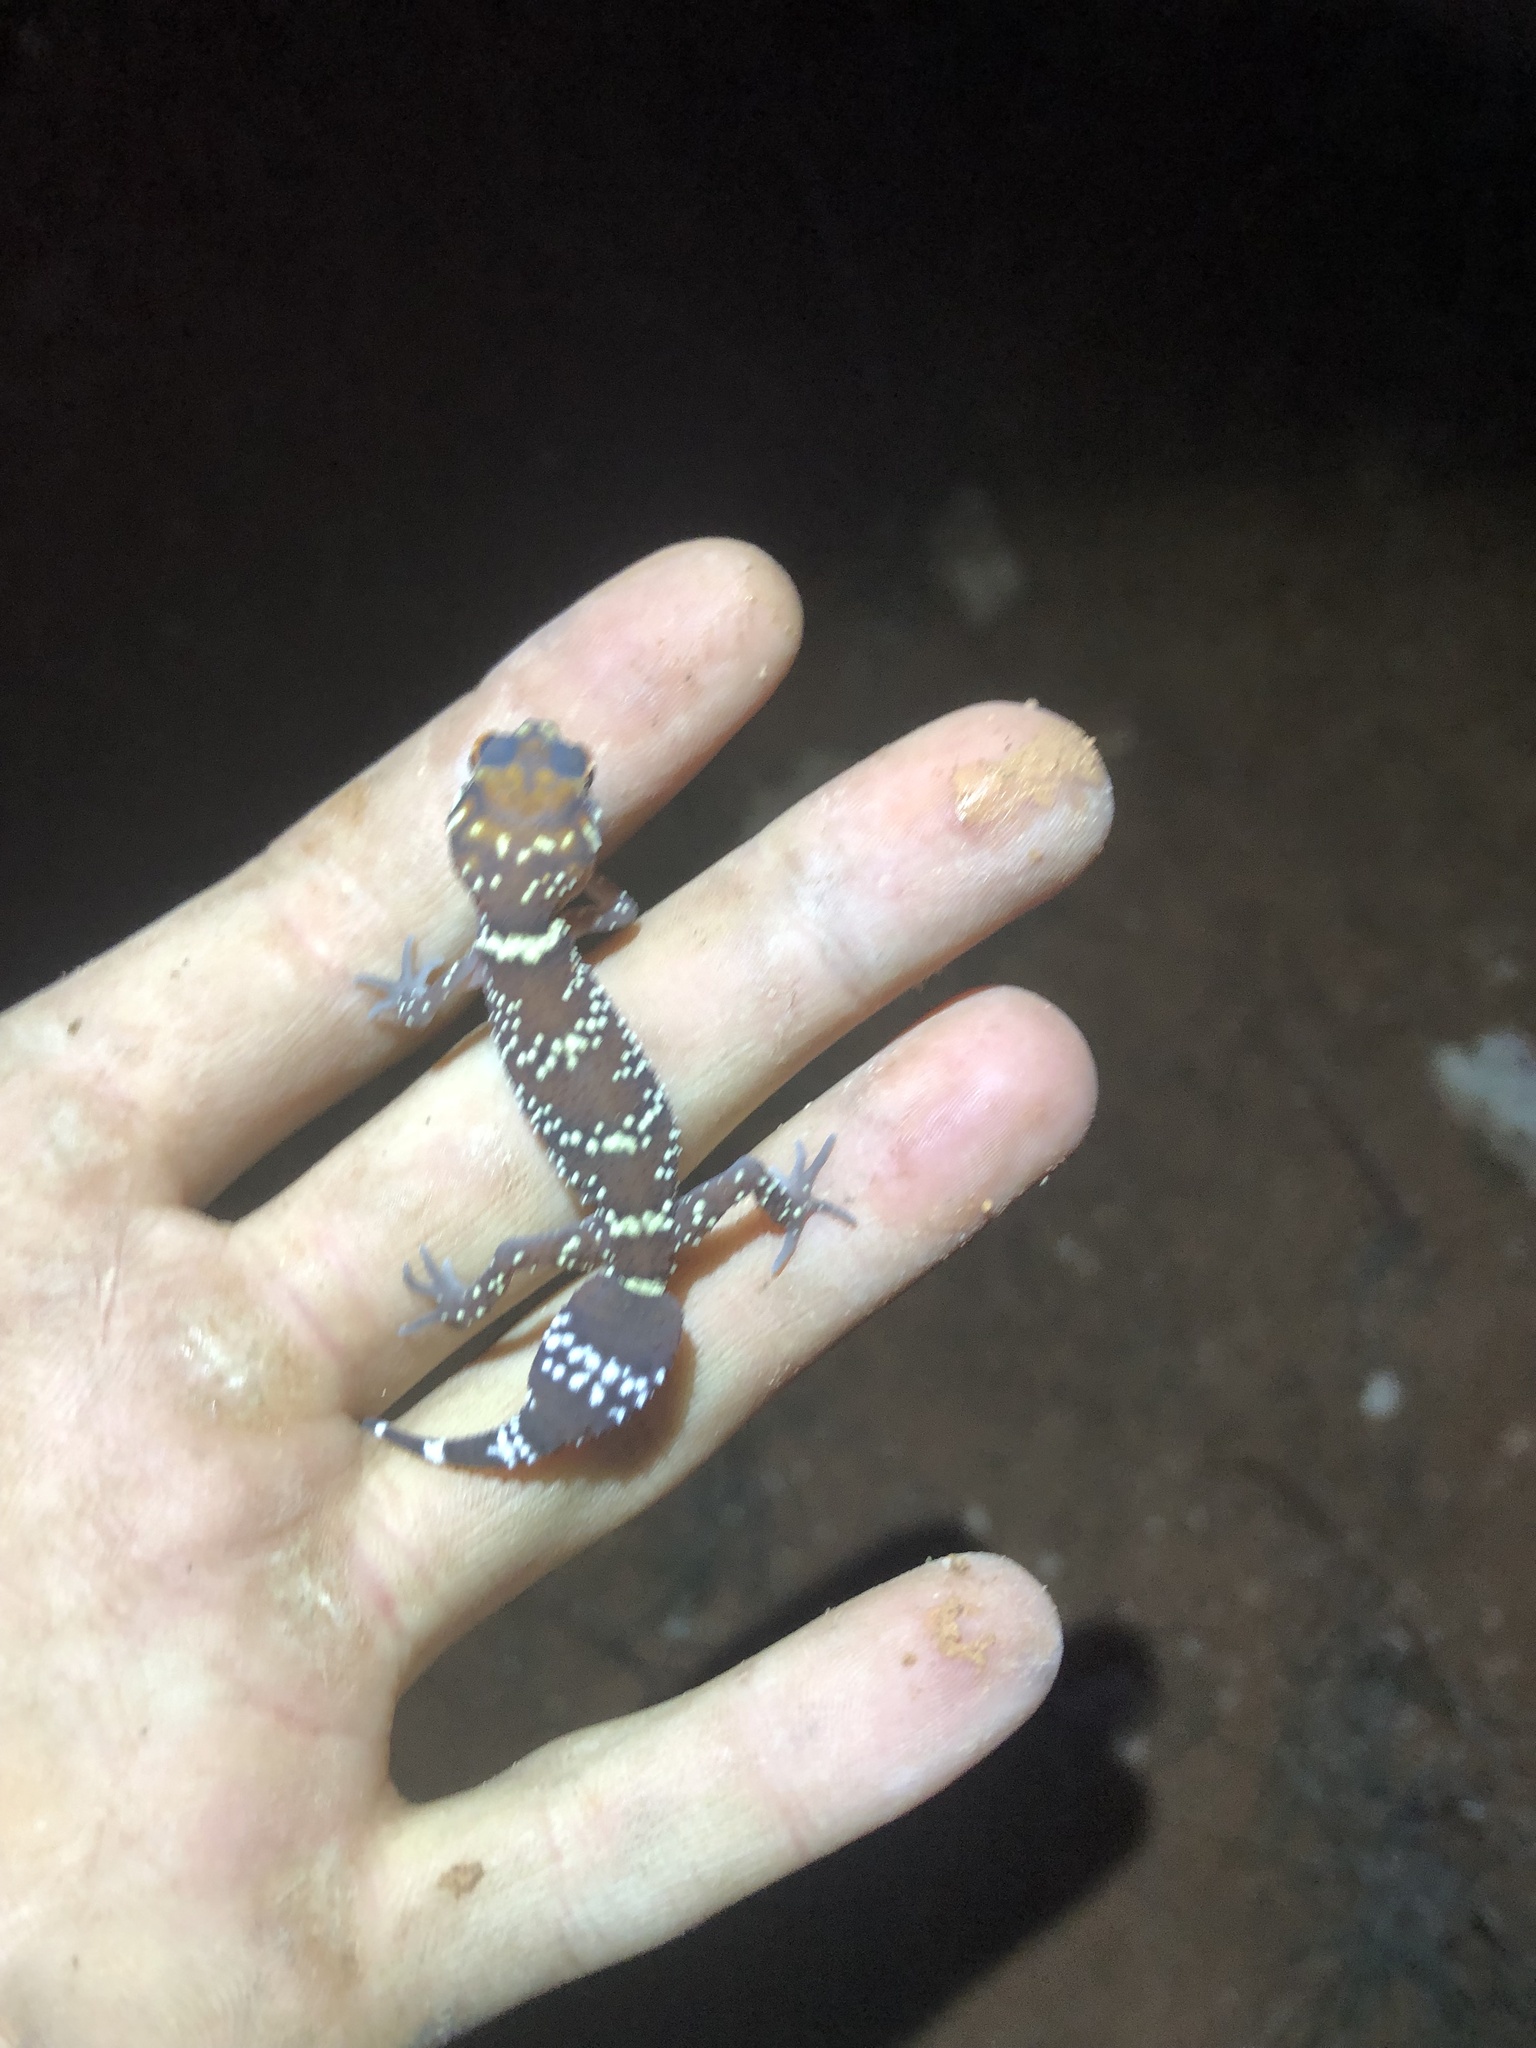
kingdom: Animalia
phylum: Chordata
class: Squamata
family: Carphodactylidae
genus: Underwoodisaurus
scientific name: Underwoodisaurus milii
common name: Barking gecko
